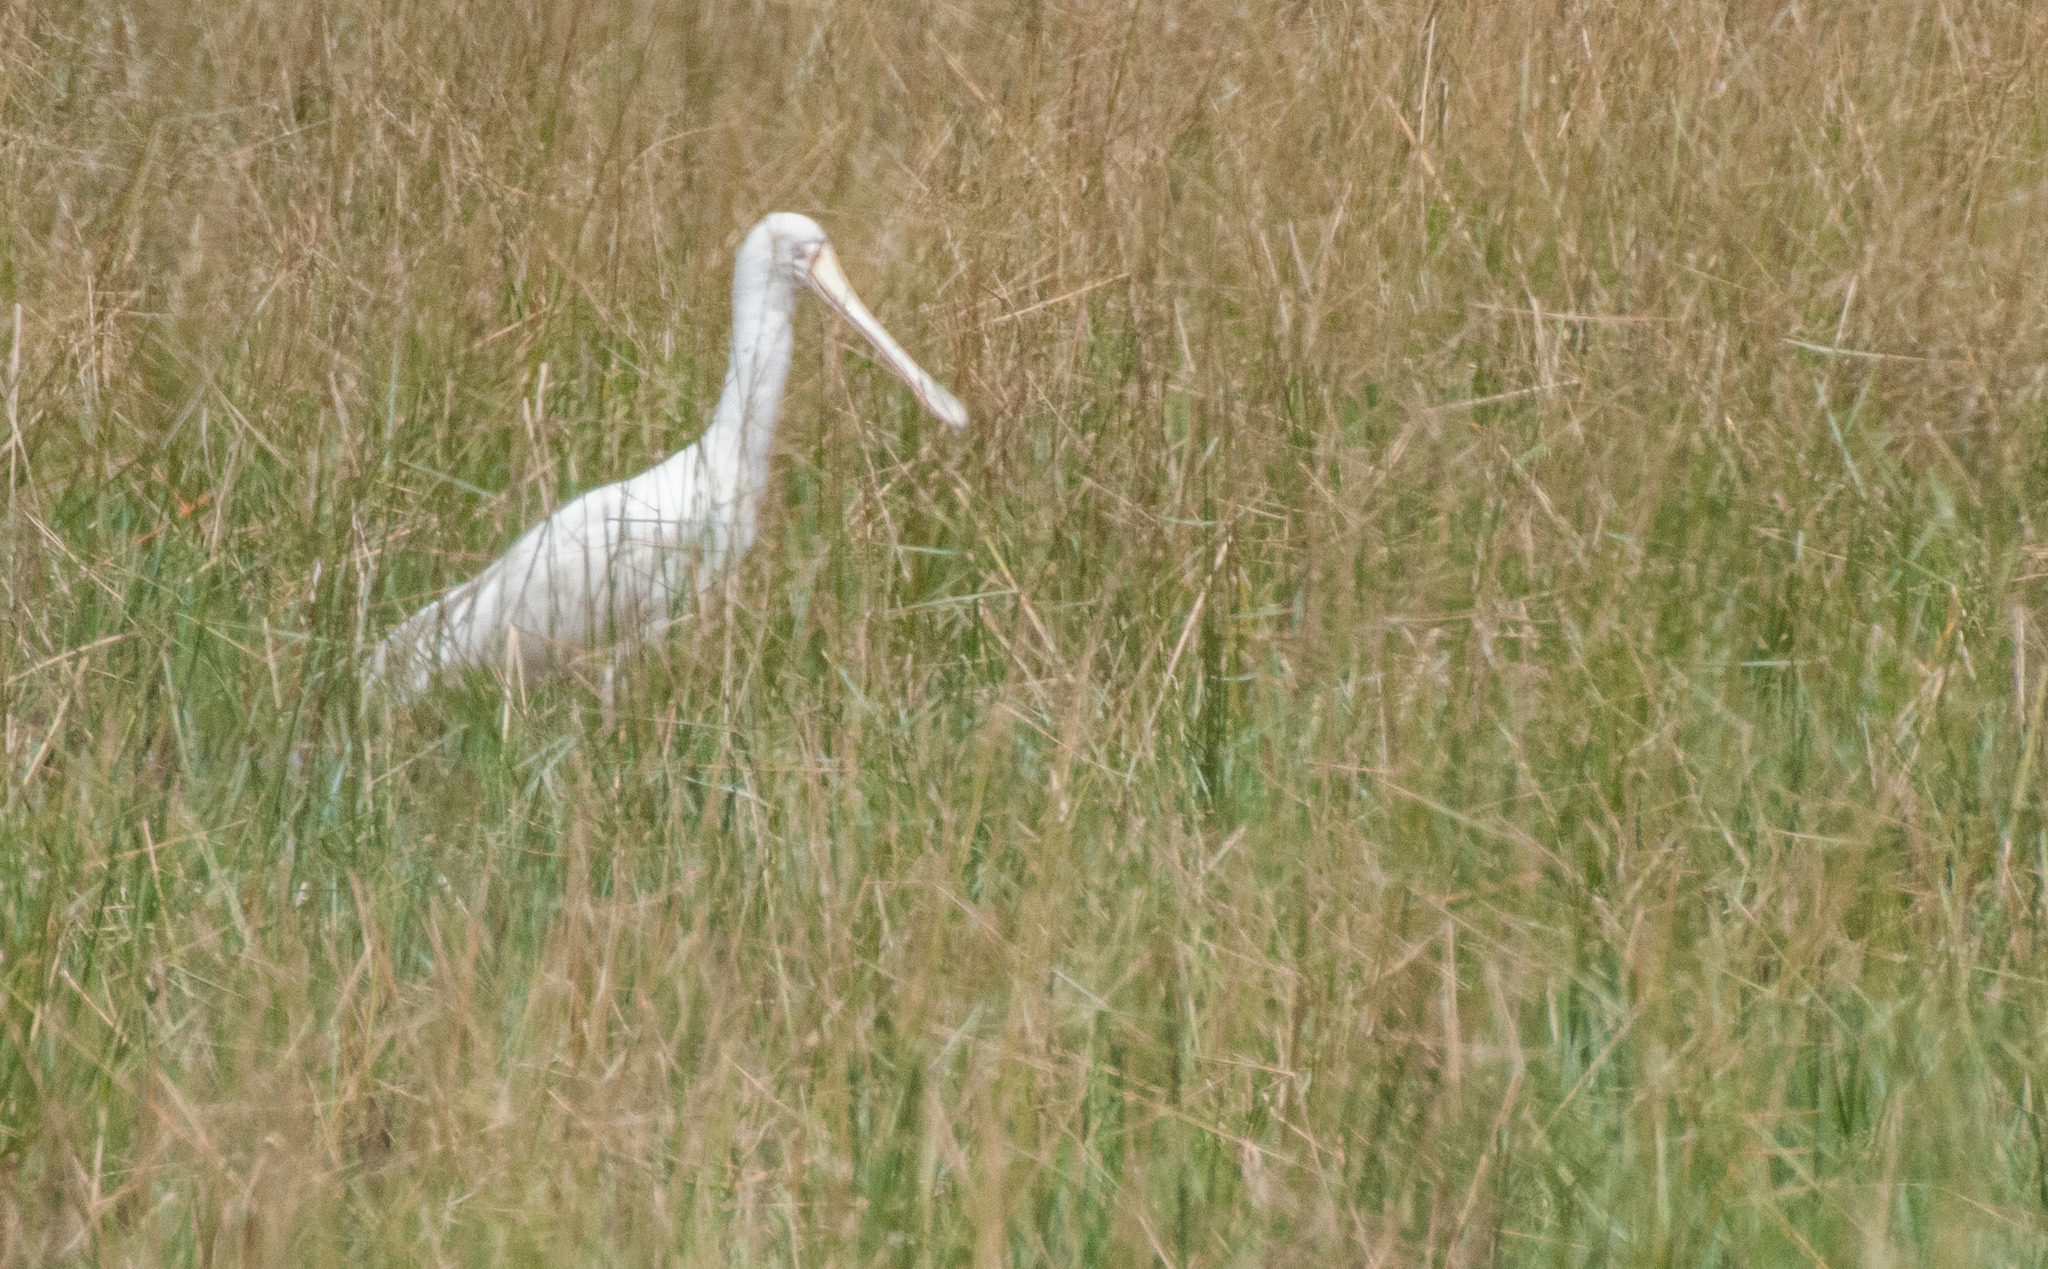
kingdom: Animalia
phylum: Chordata
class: Aves
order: Pelecaniformes
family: Threskiornithidae
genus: Platalea
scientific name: Platalea flavipes
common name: Yellow-billed spoonbill
